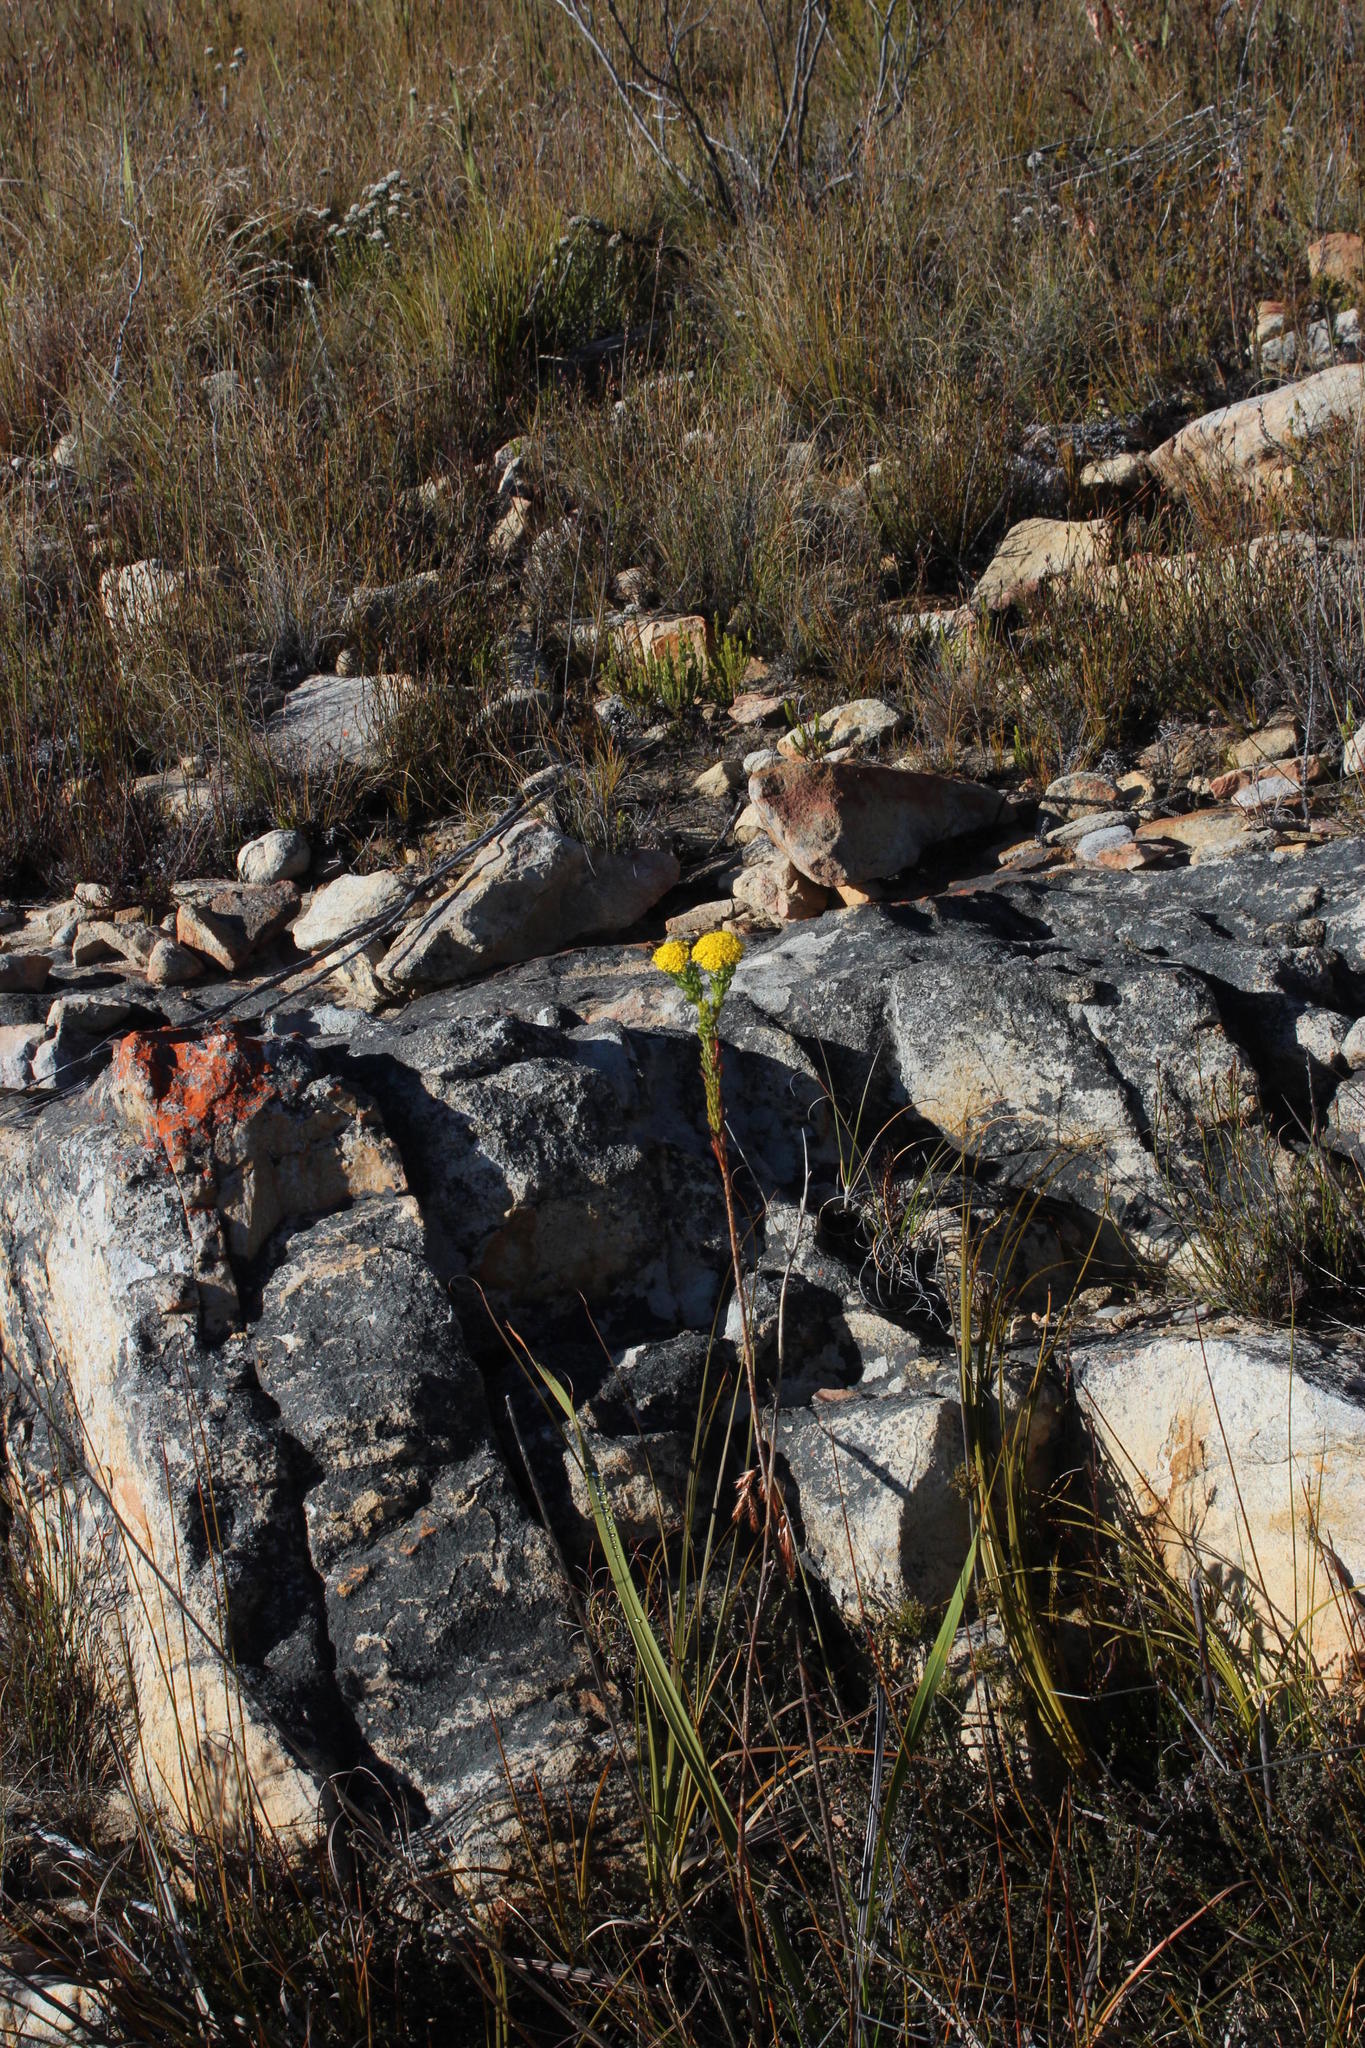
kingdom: Plantae
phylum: Tracheophyta
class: Magnoliopsida
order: Asterales
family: Asteraceae
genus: Hymenolepis
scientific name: Hymenolepis incisa
